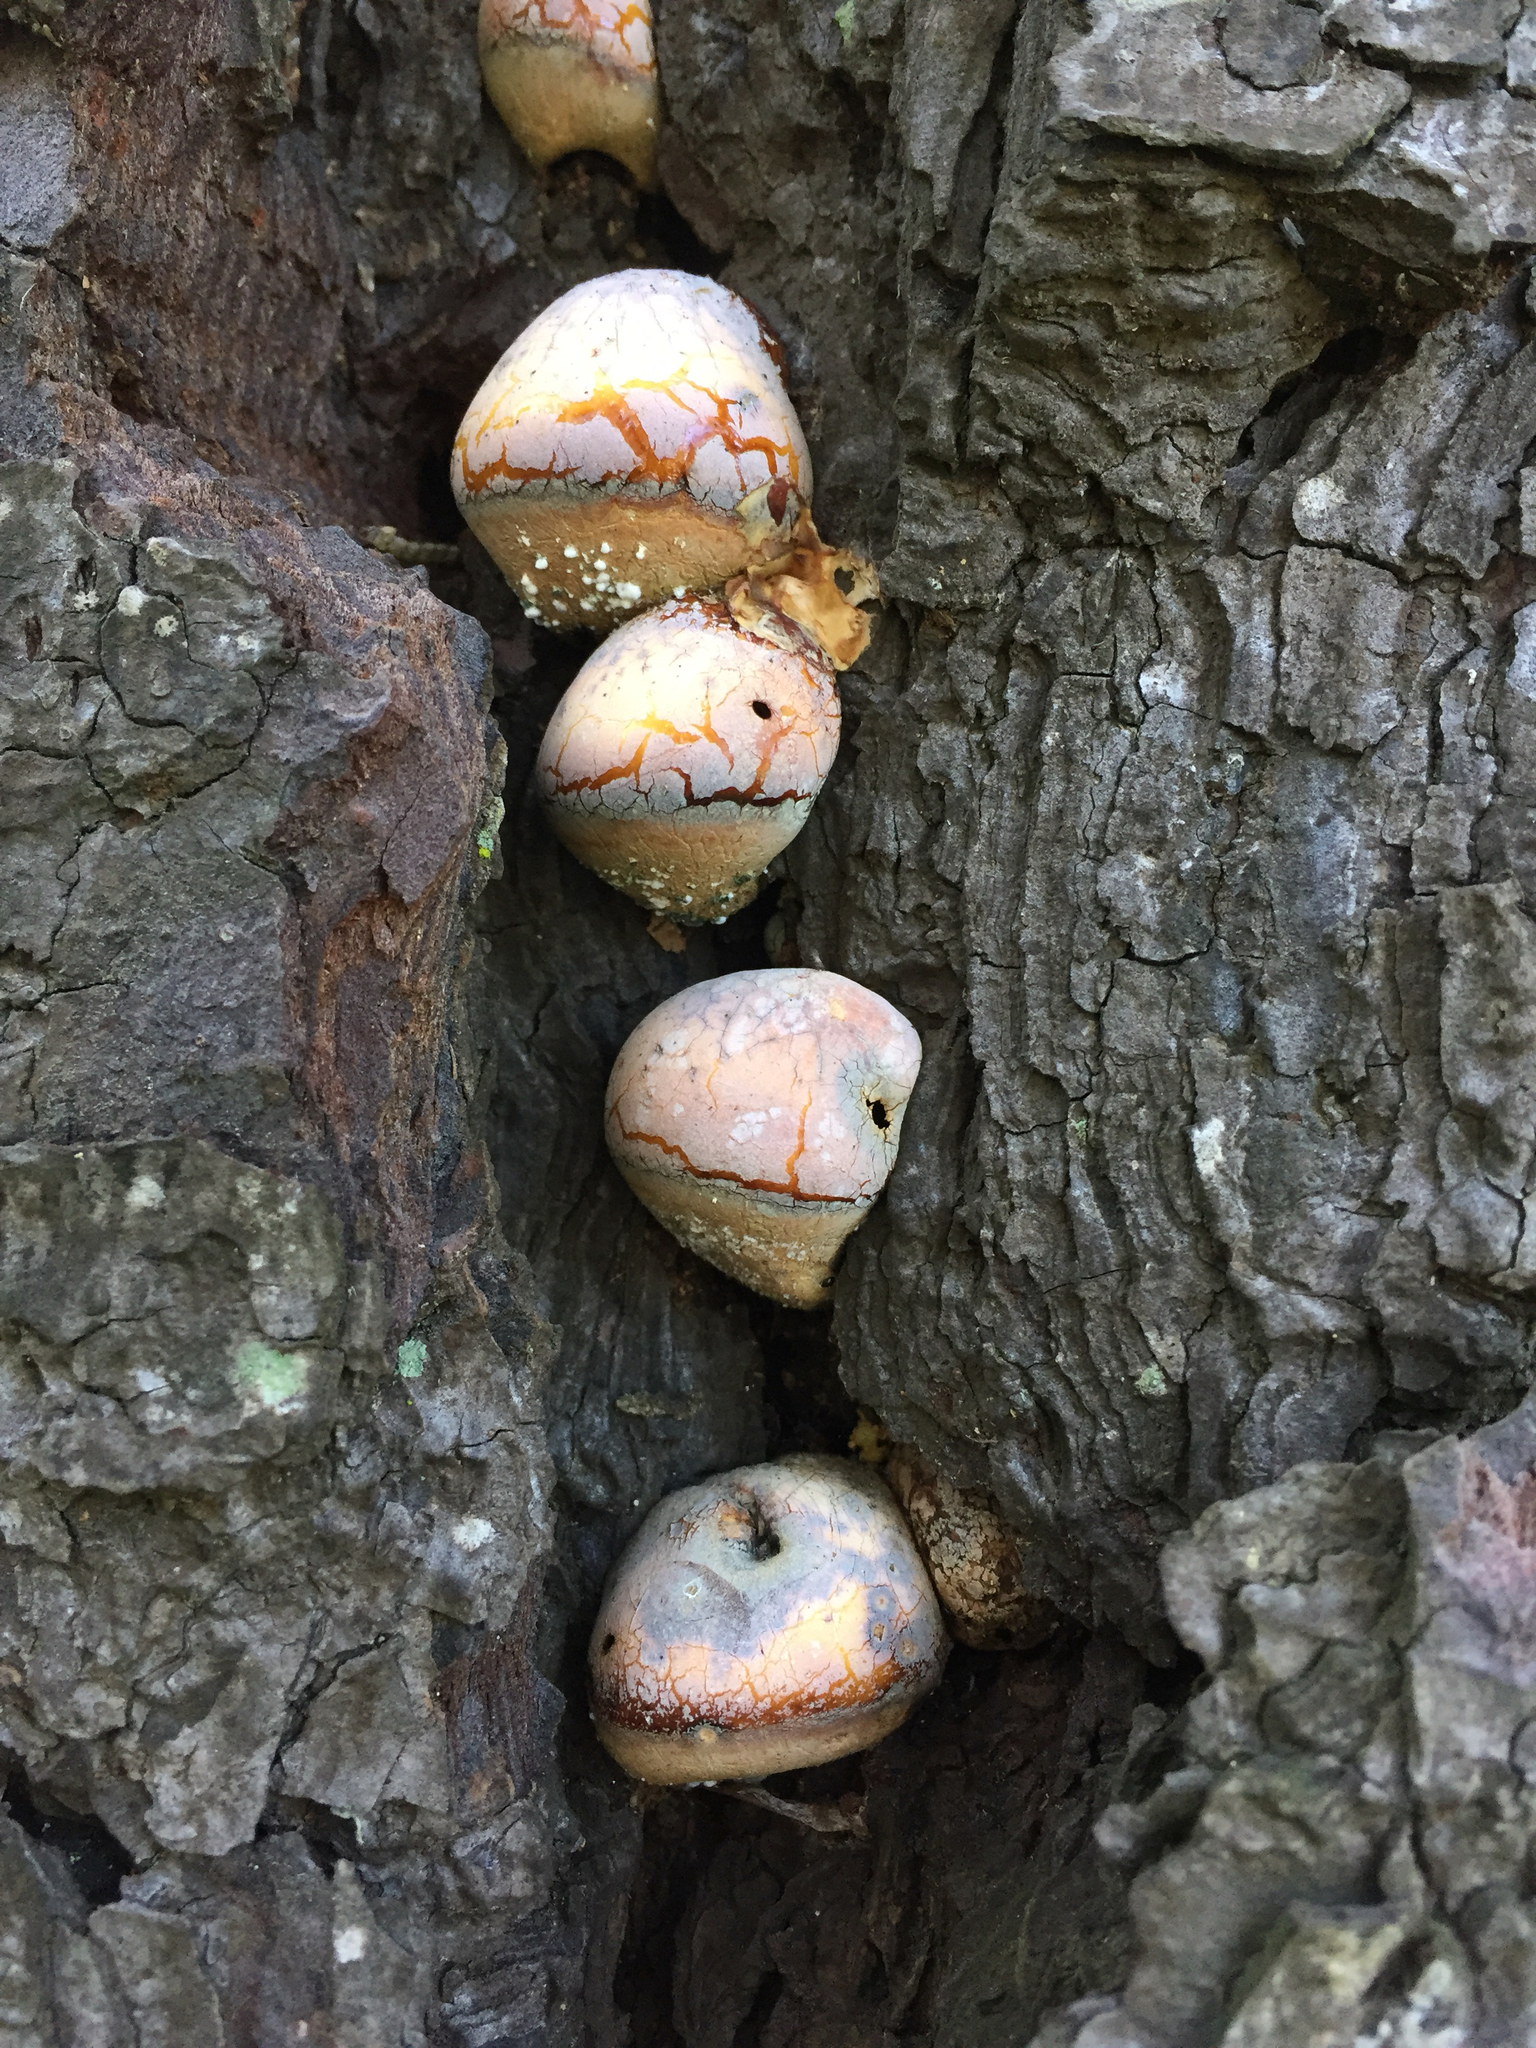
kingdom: Fungi
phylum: Basidiomycota
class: Agaricomycetes
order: Polyporales
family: Polyporaceae
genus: Cryptoporus
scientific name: Cryptoporus volvatus
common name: Veiled polypore
